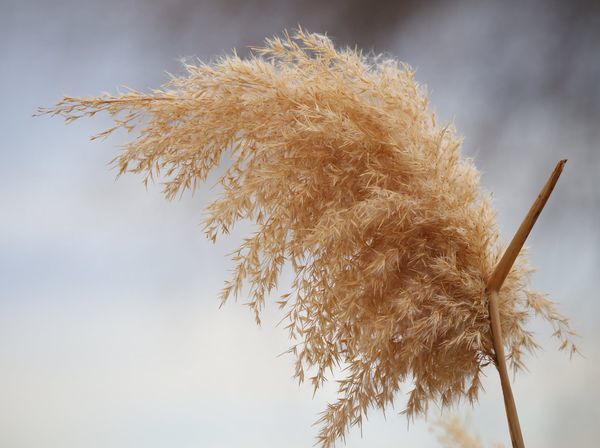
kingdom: Plantae
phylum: Tracheophyta
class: Liliopsida
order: Poales
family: Poaceae
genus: Phragmites
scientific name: Phragmites australis
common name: Common reed
